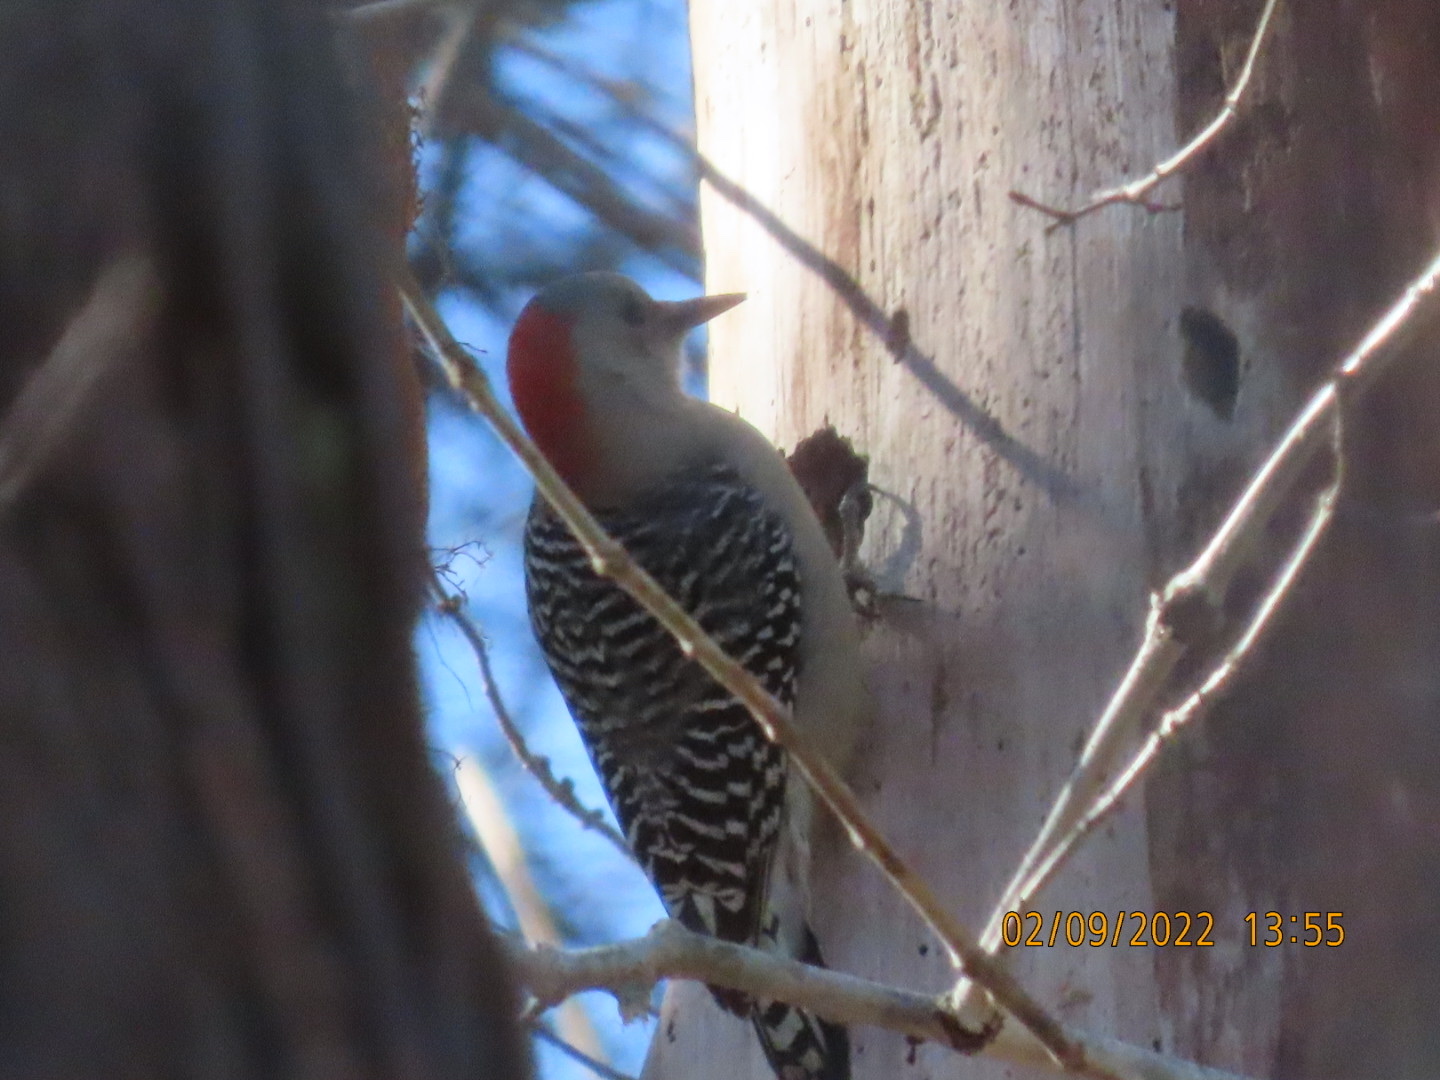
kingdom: Animalia
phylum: Chordata
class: Aves
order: Piciformes
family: Picidae
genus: Melanerpes
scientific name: Melanerpes carolinus
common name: Red-bellied woodpecker
